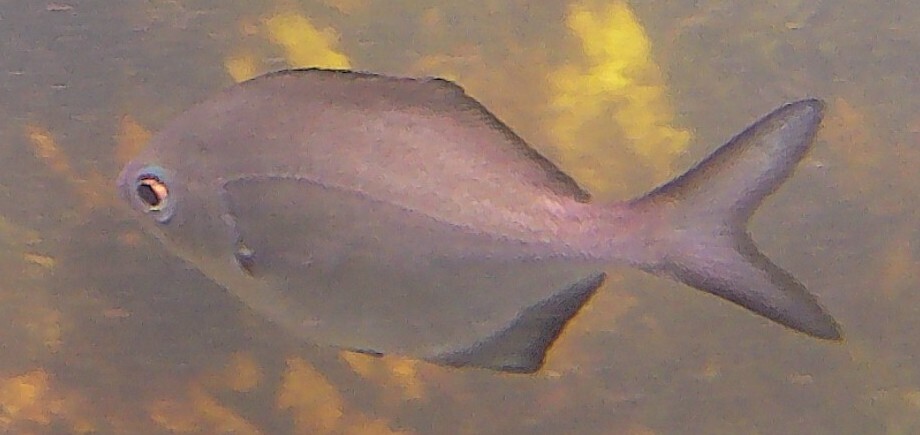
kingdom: Animalia
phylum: Chordata
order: Perciformes
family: Kyphosidae
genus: Scorpis
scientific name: Scorpis lineolata
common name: Sweep
